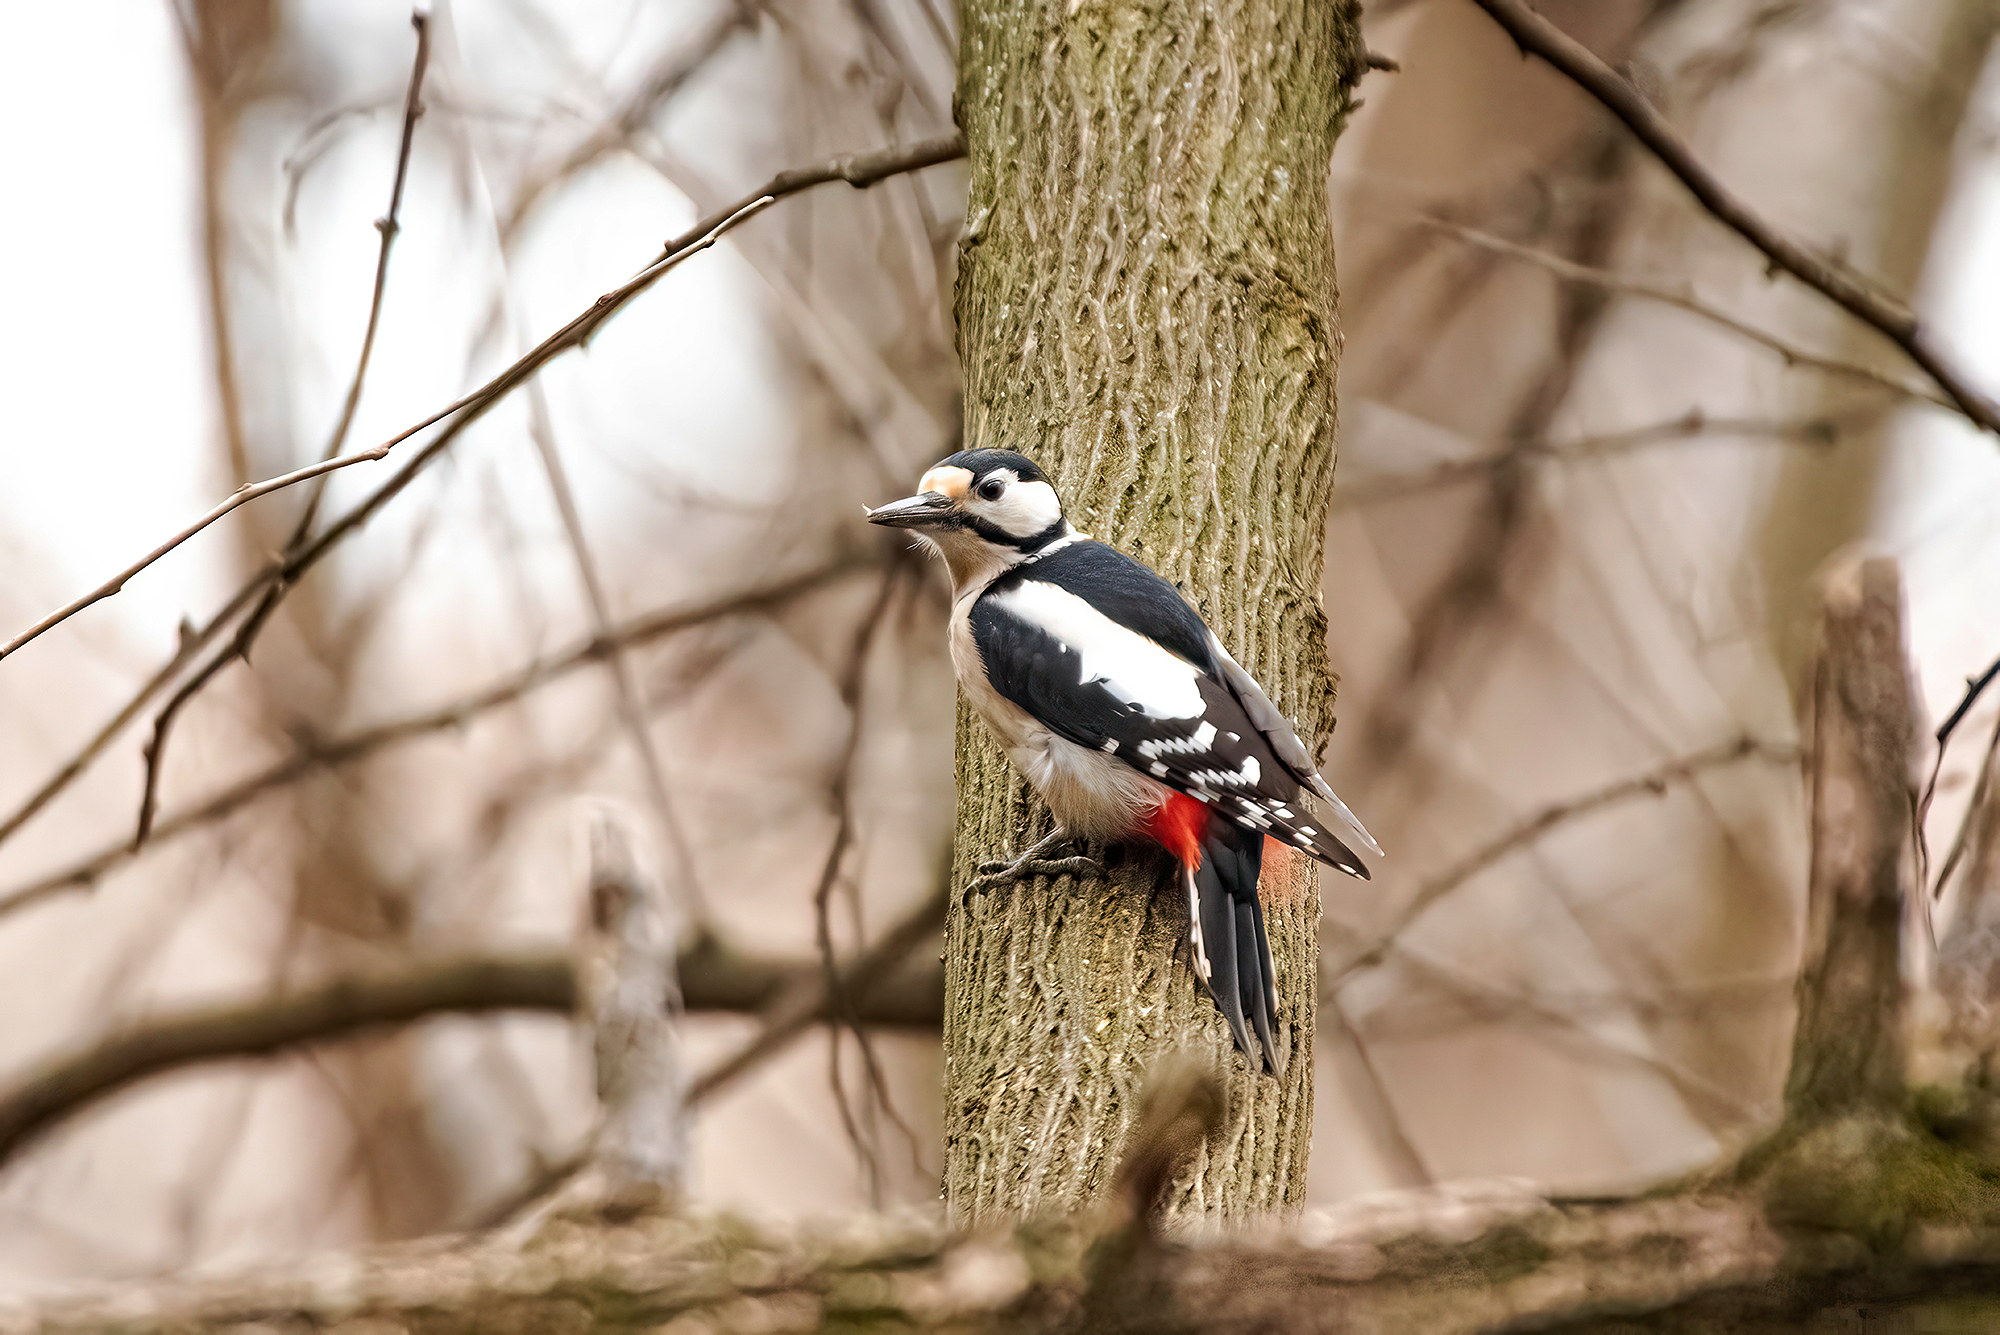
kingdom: Animalia
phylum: Chordata
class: Aves
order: Piciformes
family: Picidae
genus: Dendrocopos
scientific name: Dendrocopos major
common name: Great spotted woodpecker
